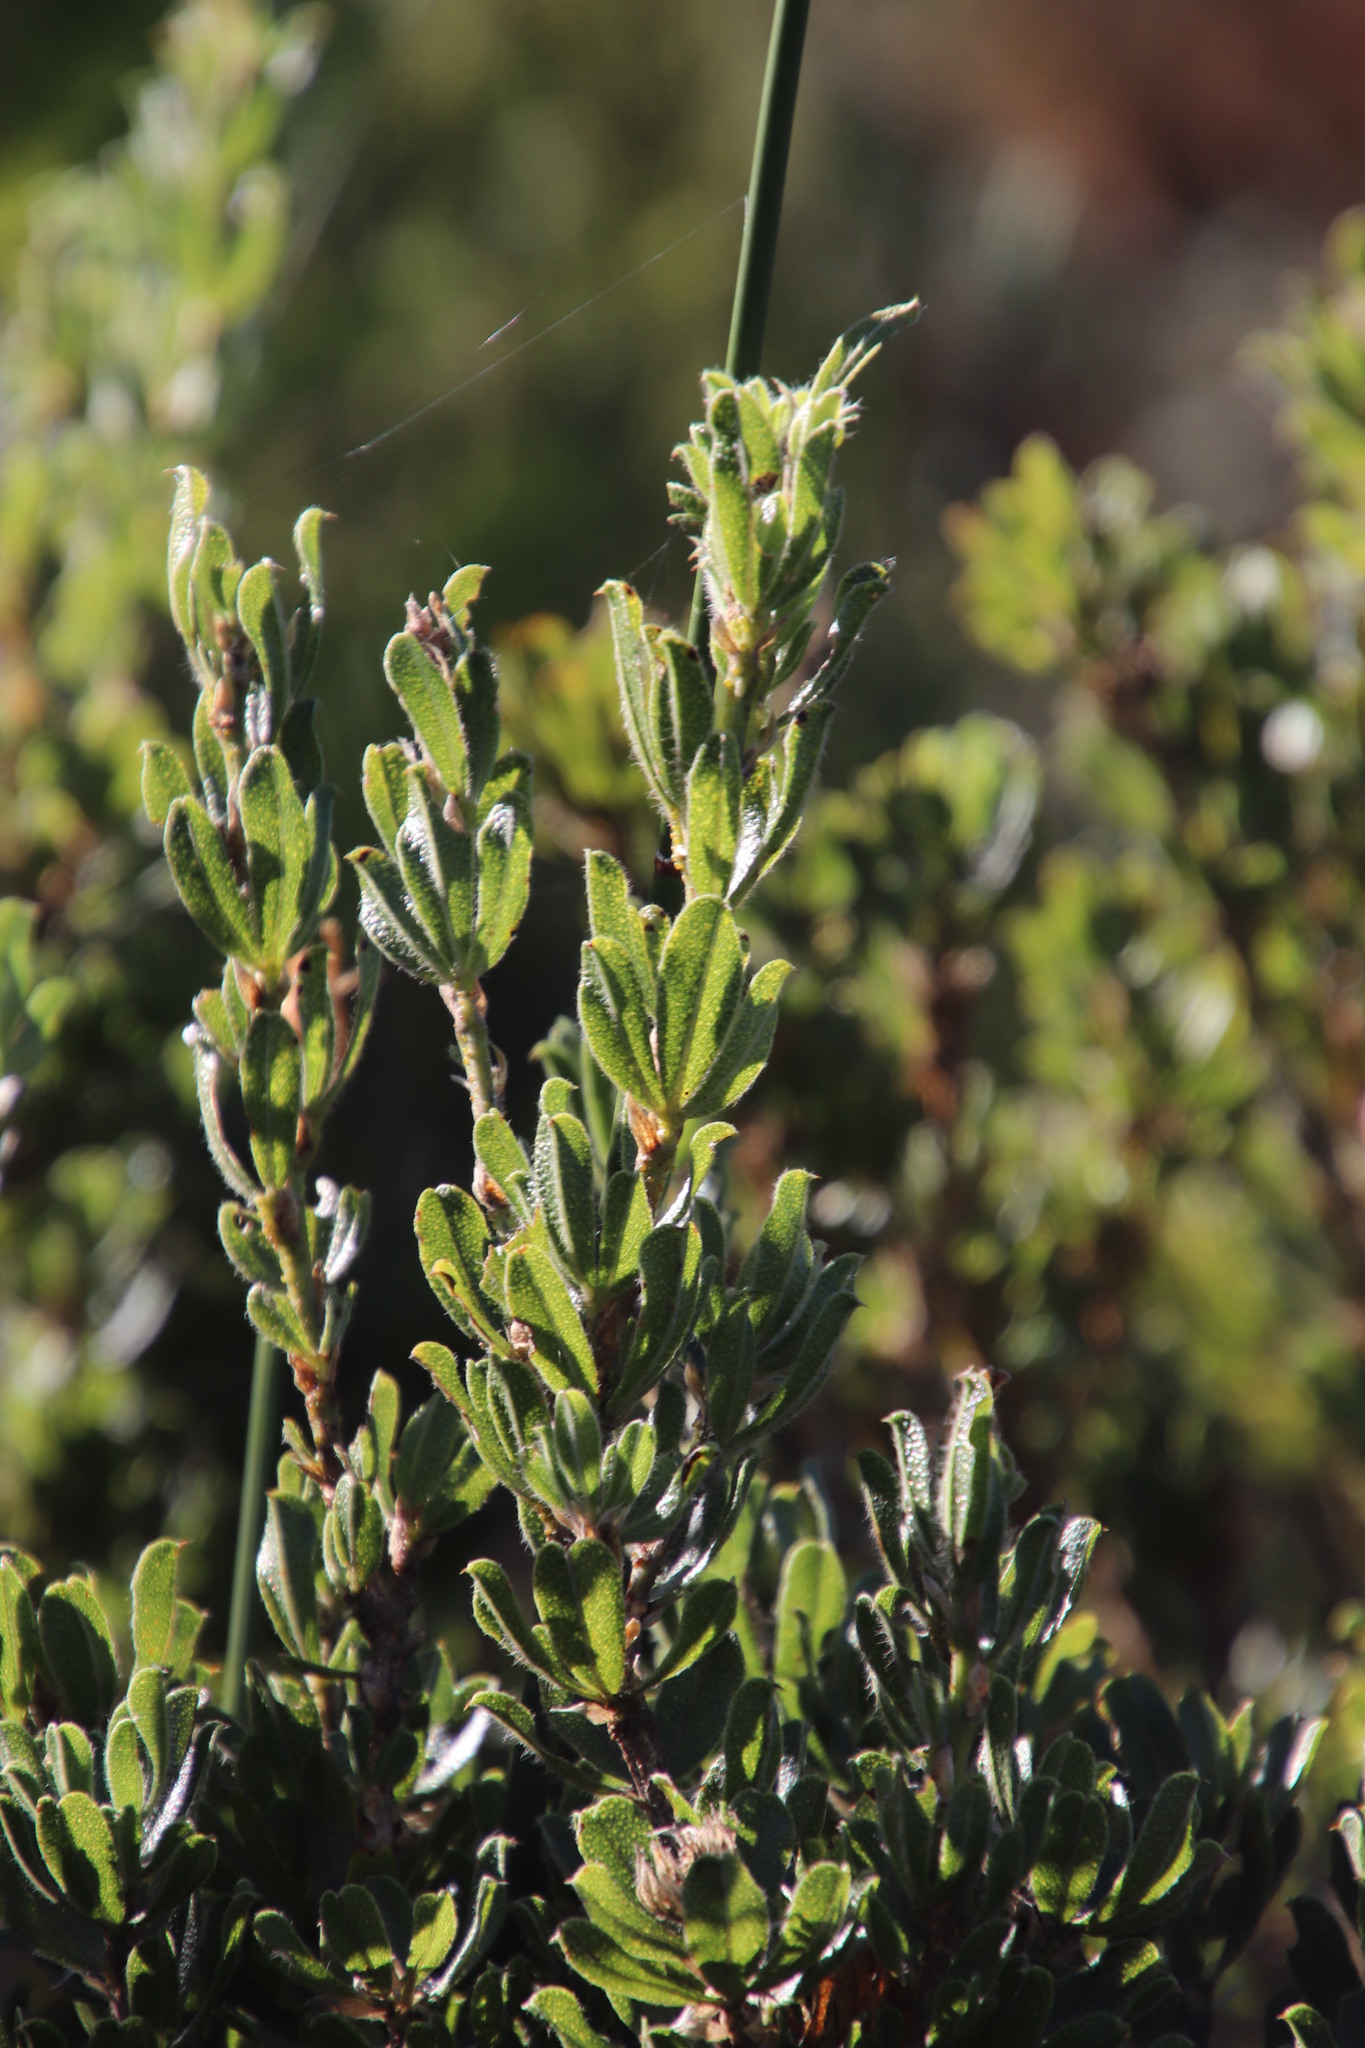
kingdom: Plantae
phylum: Tracheophyta
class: Magnoliopsida
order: Fabales
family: Fabaceae
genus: Psoralea
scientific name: Psoralea obliqua
